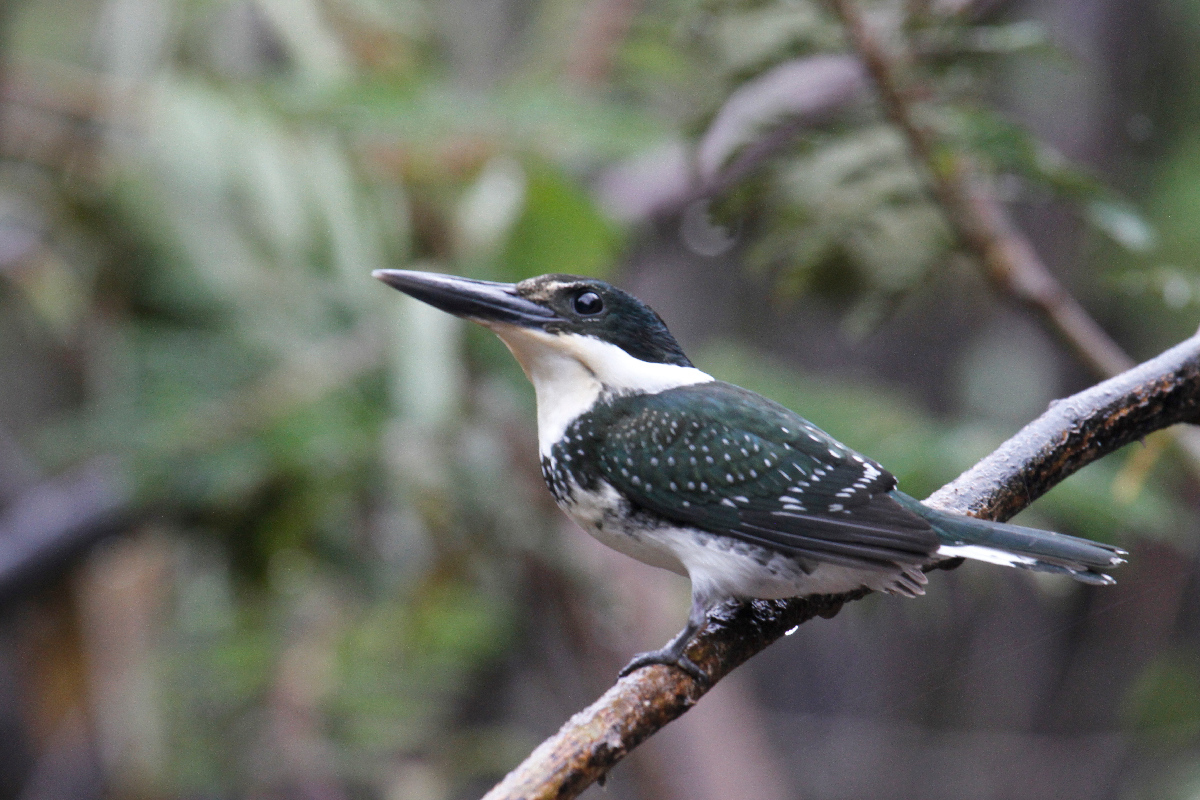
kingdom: Animalia
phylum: Chordata
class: Aves
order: Coraciiformes
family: Alcedinidae
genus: Chloroceryle
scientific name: Chloroceryle americana
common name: Green kingfisher
